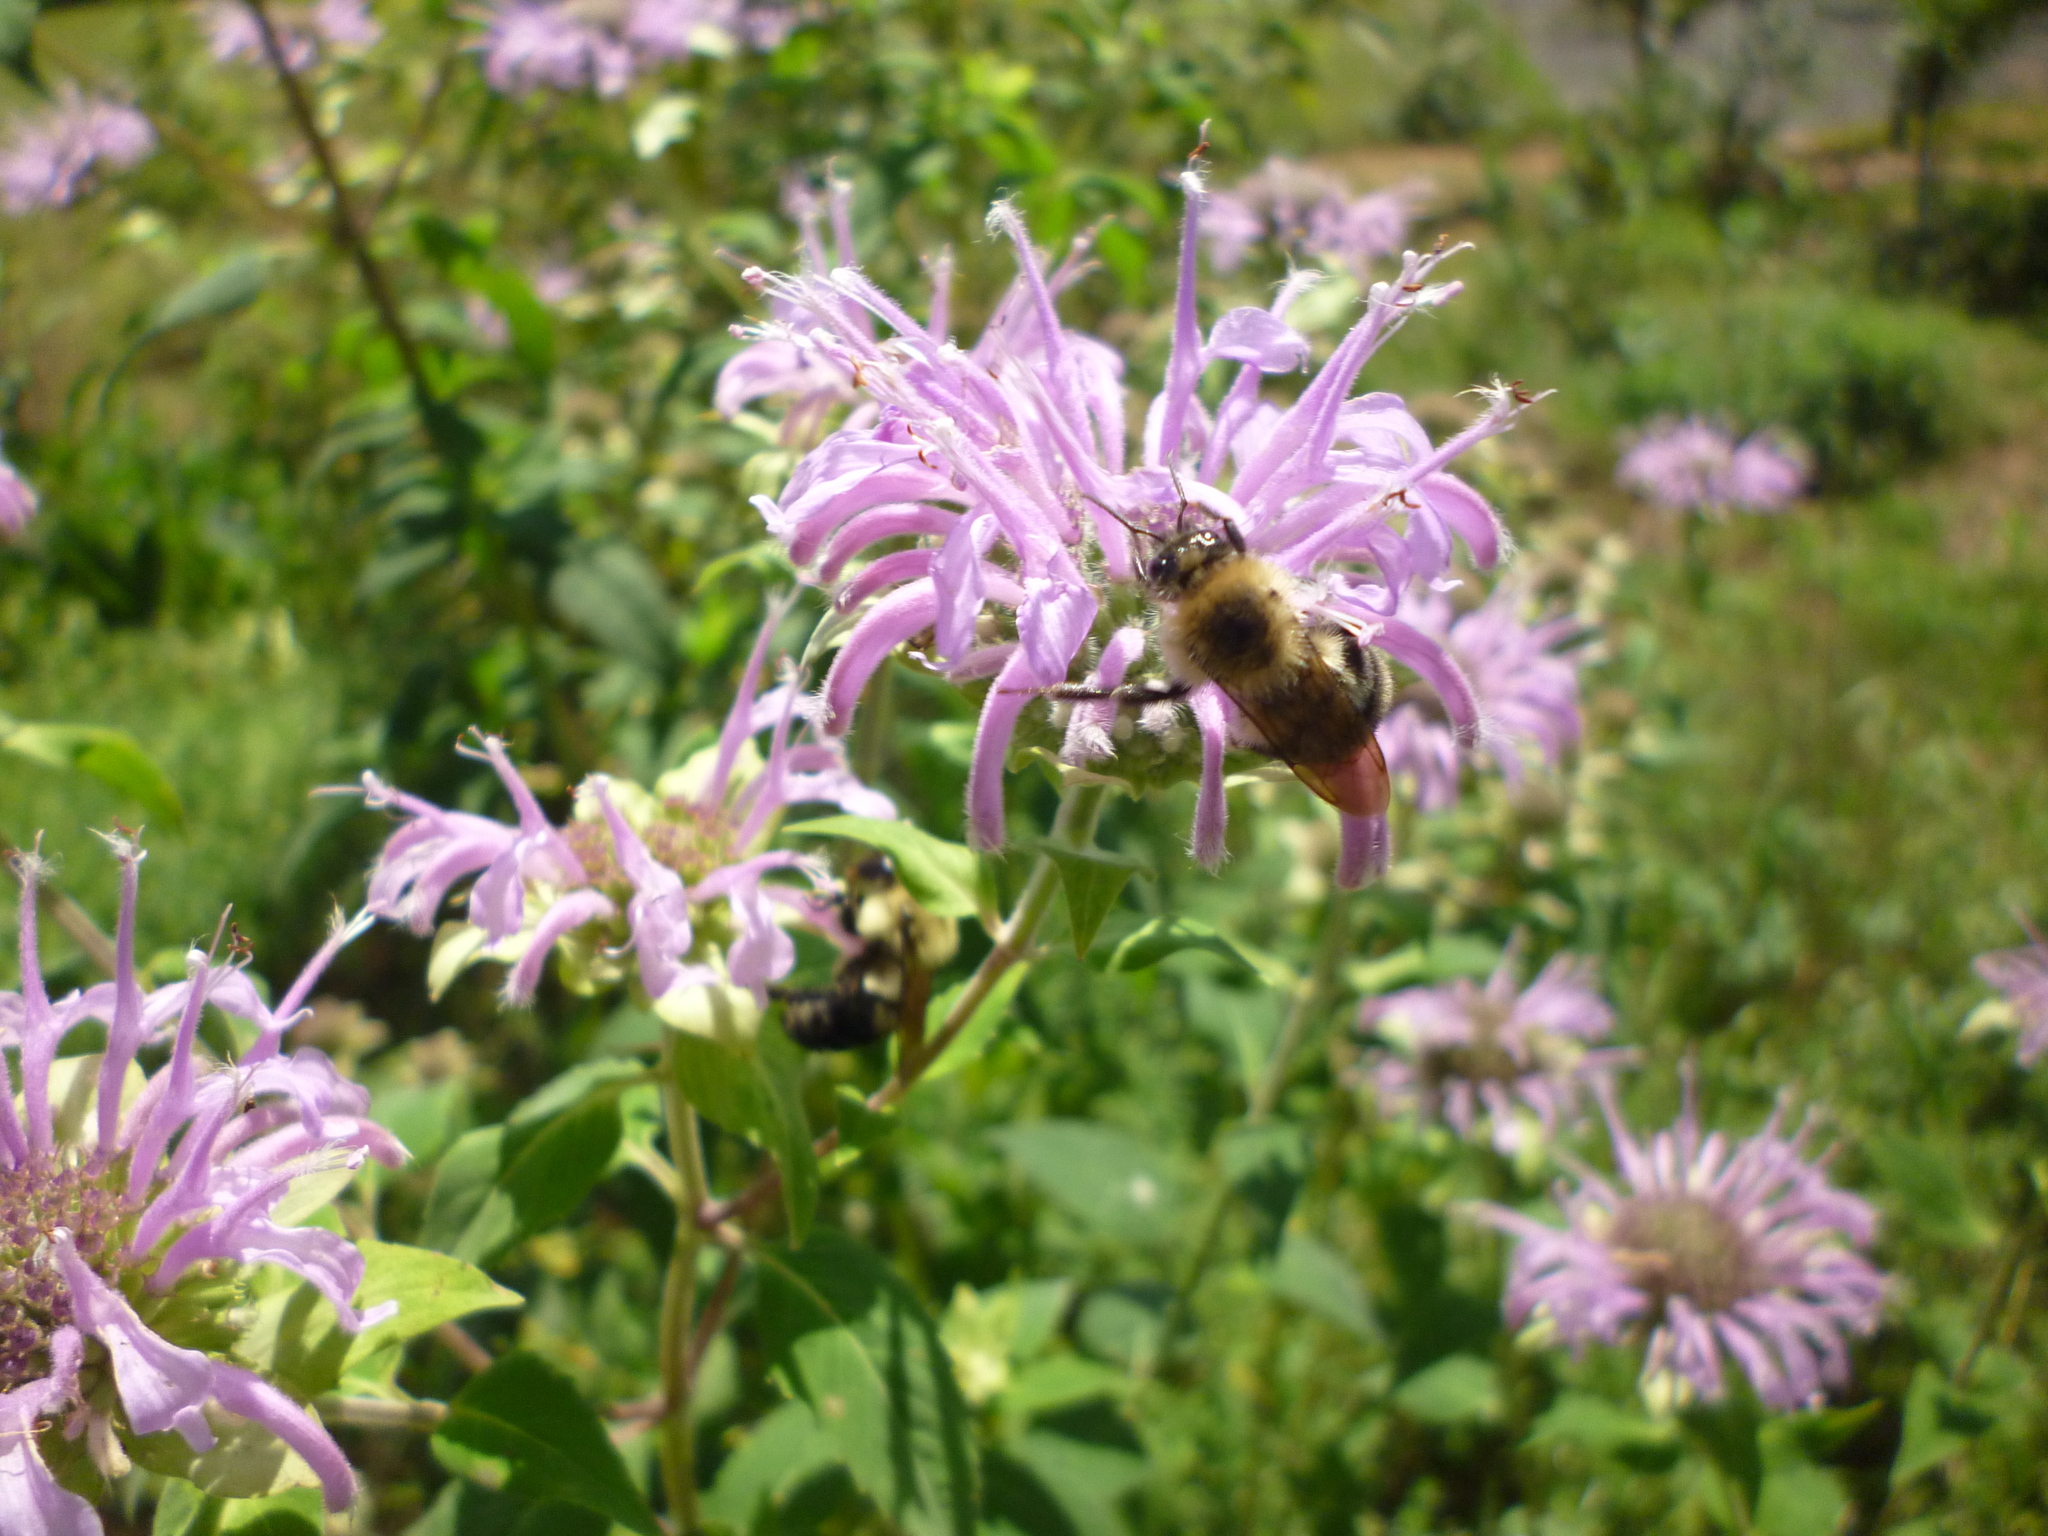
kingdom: Plantae
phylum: Tracheophyta
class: Magnoliopsida
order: Lamiales
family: Lamiaceae
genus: Monarda
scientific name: Monarda fistulosa
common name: Purple beebalm
